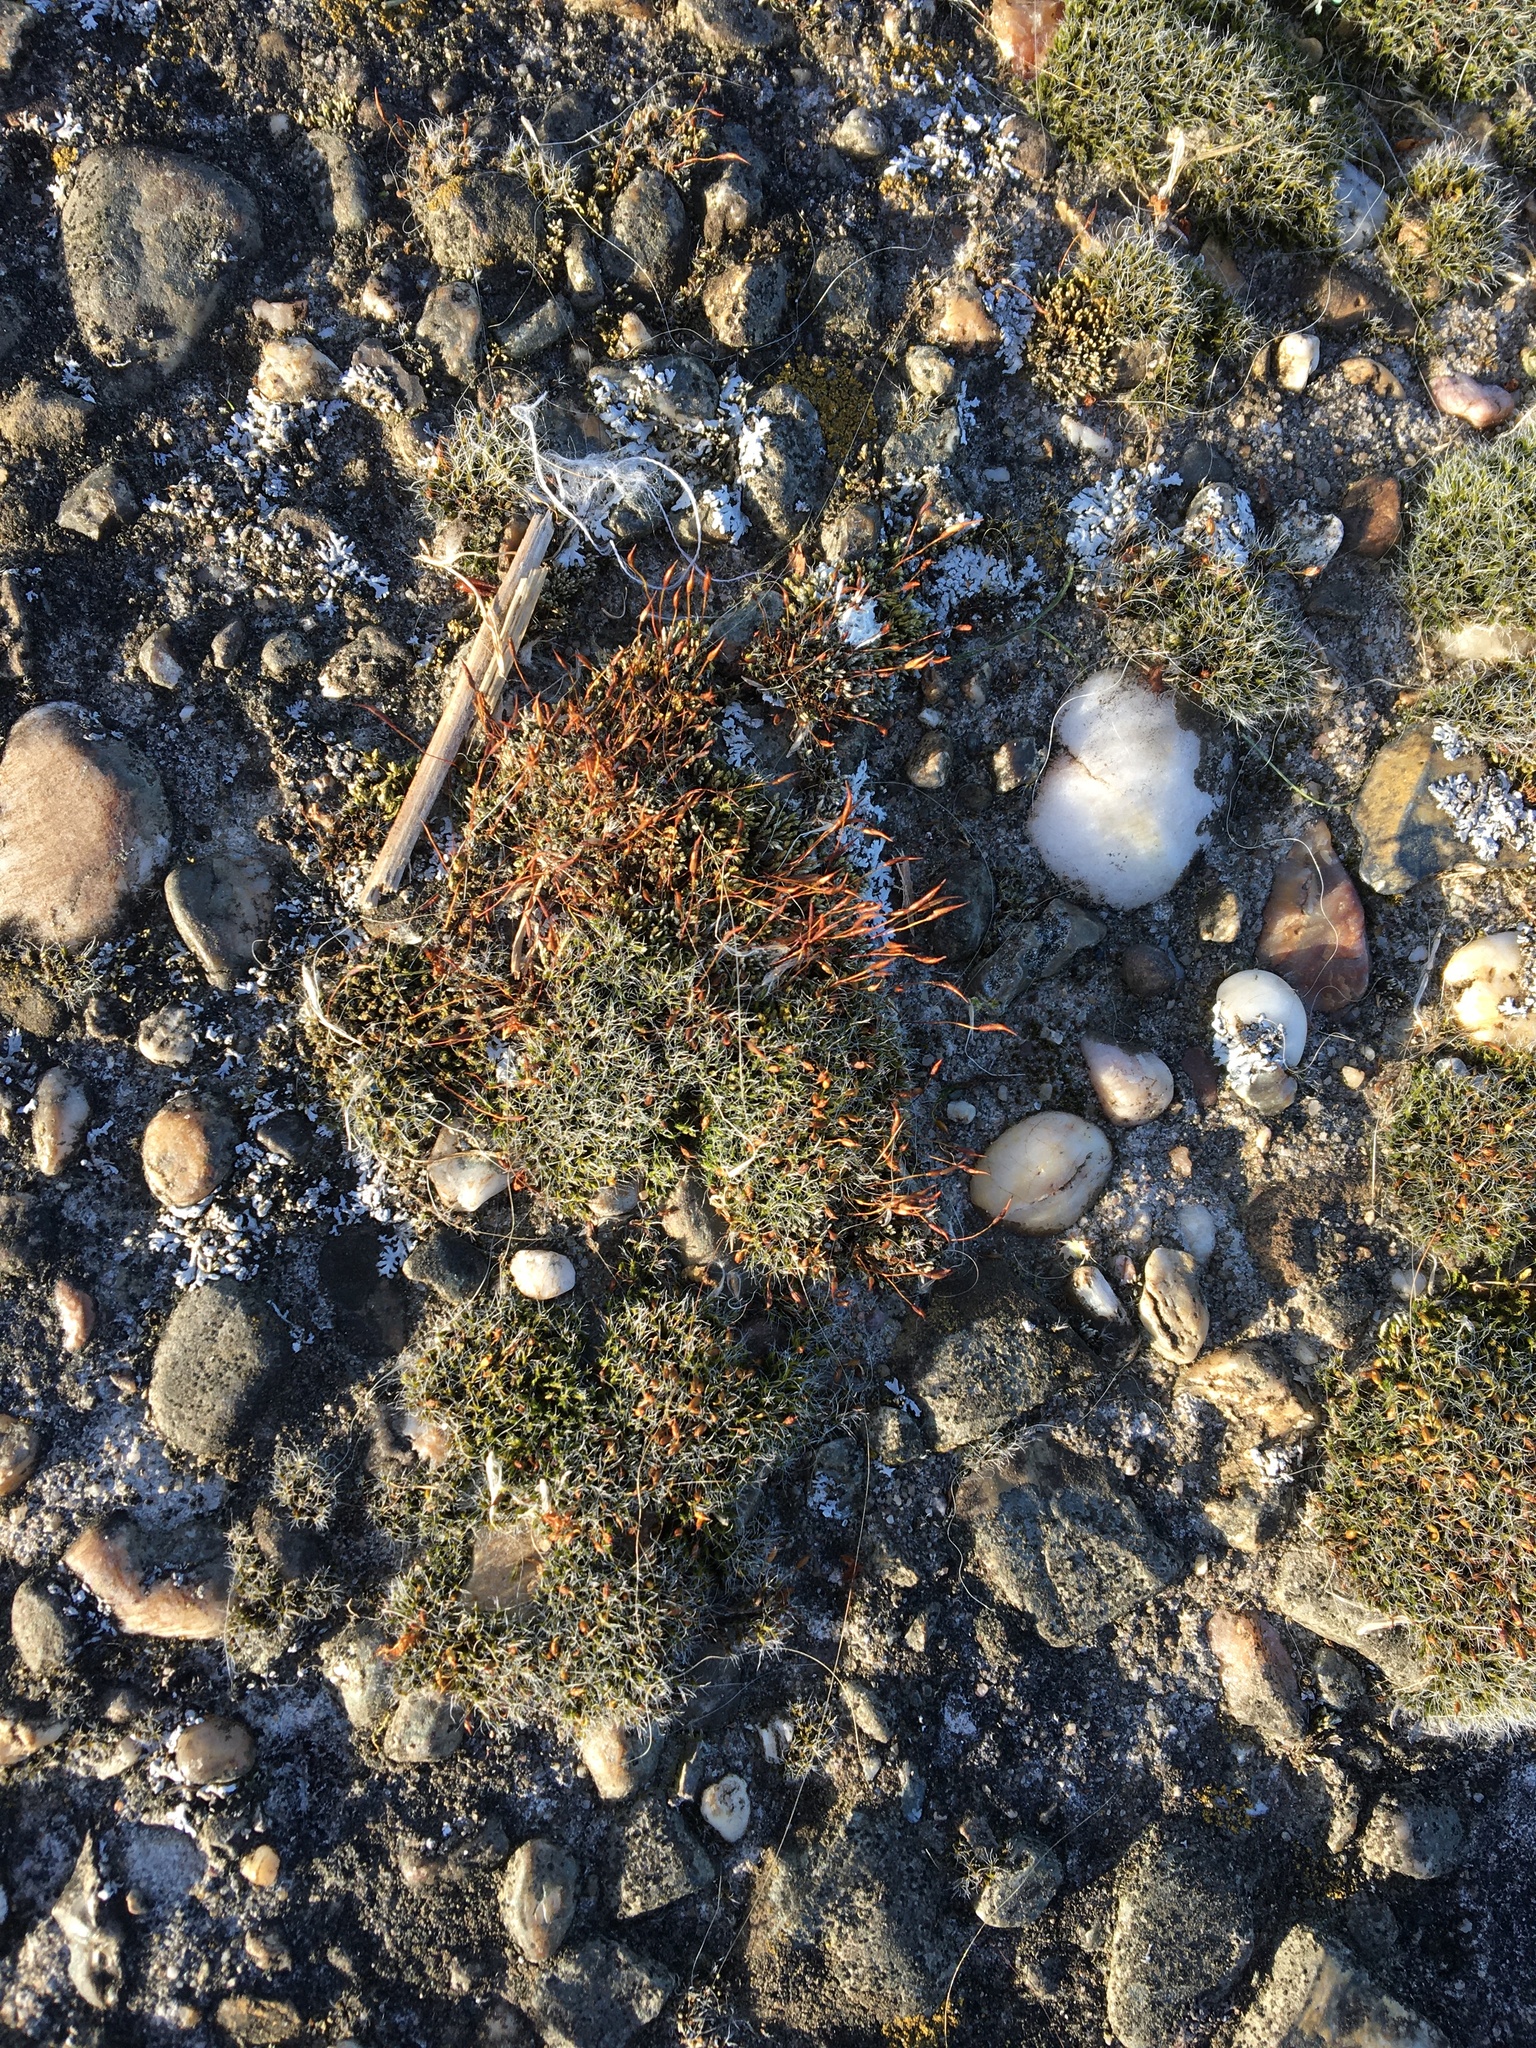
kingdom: Plantae
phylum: Bryophyta
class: Bryopsida
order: Pottiales
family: Pottiaceae
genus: Tortula
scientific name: Tortula muralis
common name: Wall screw-moss
